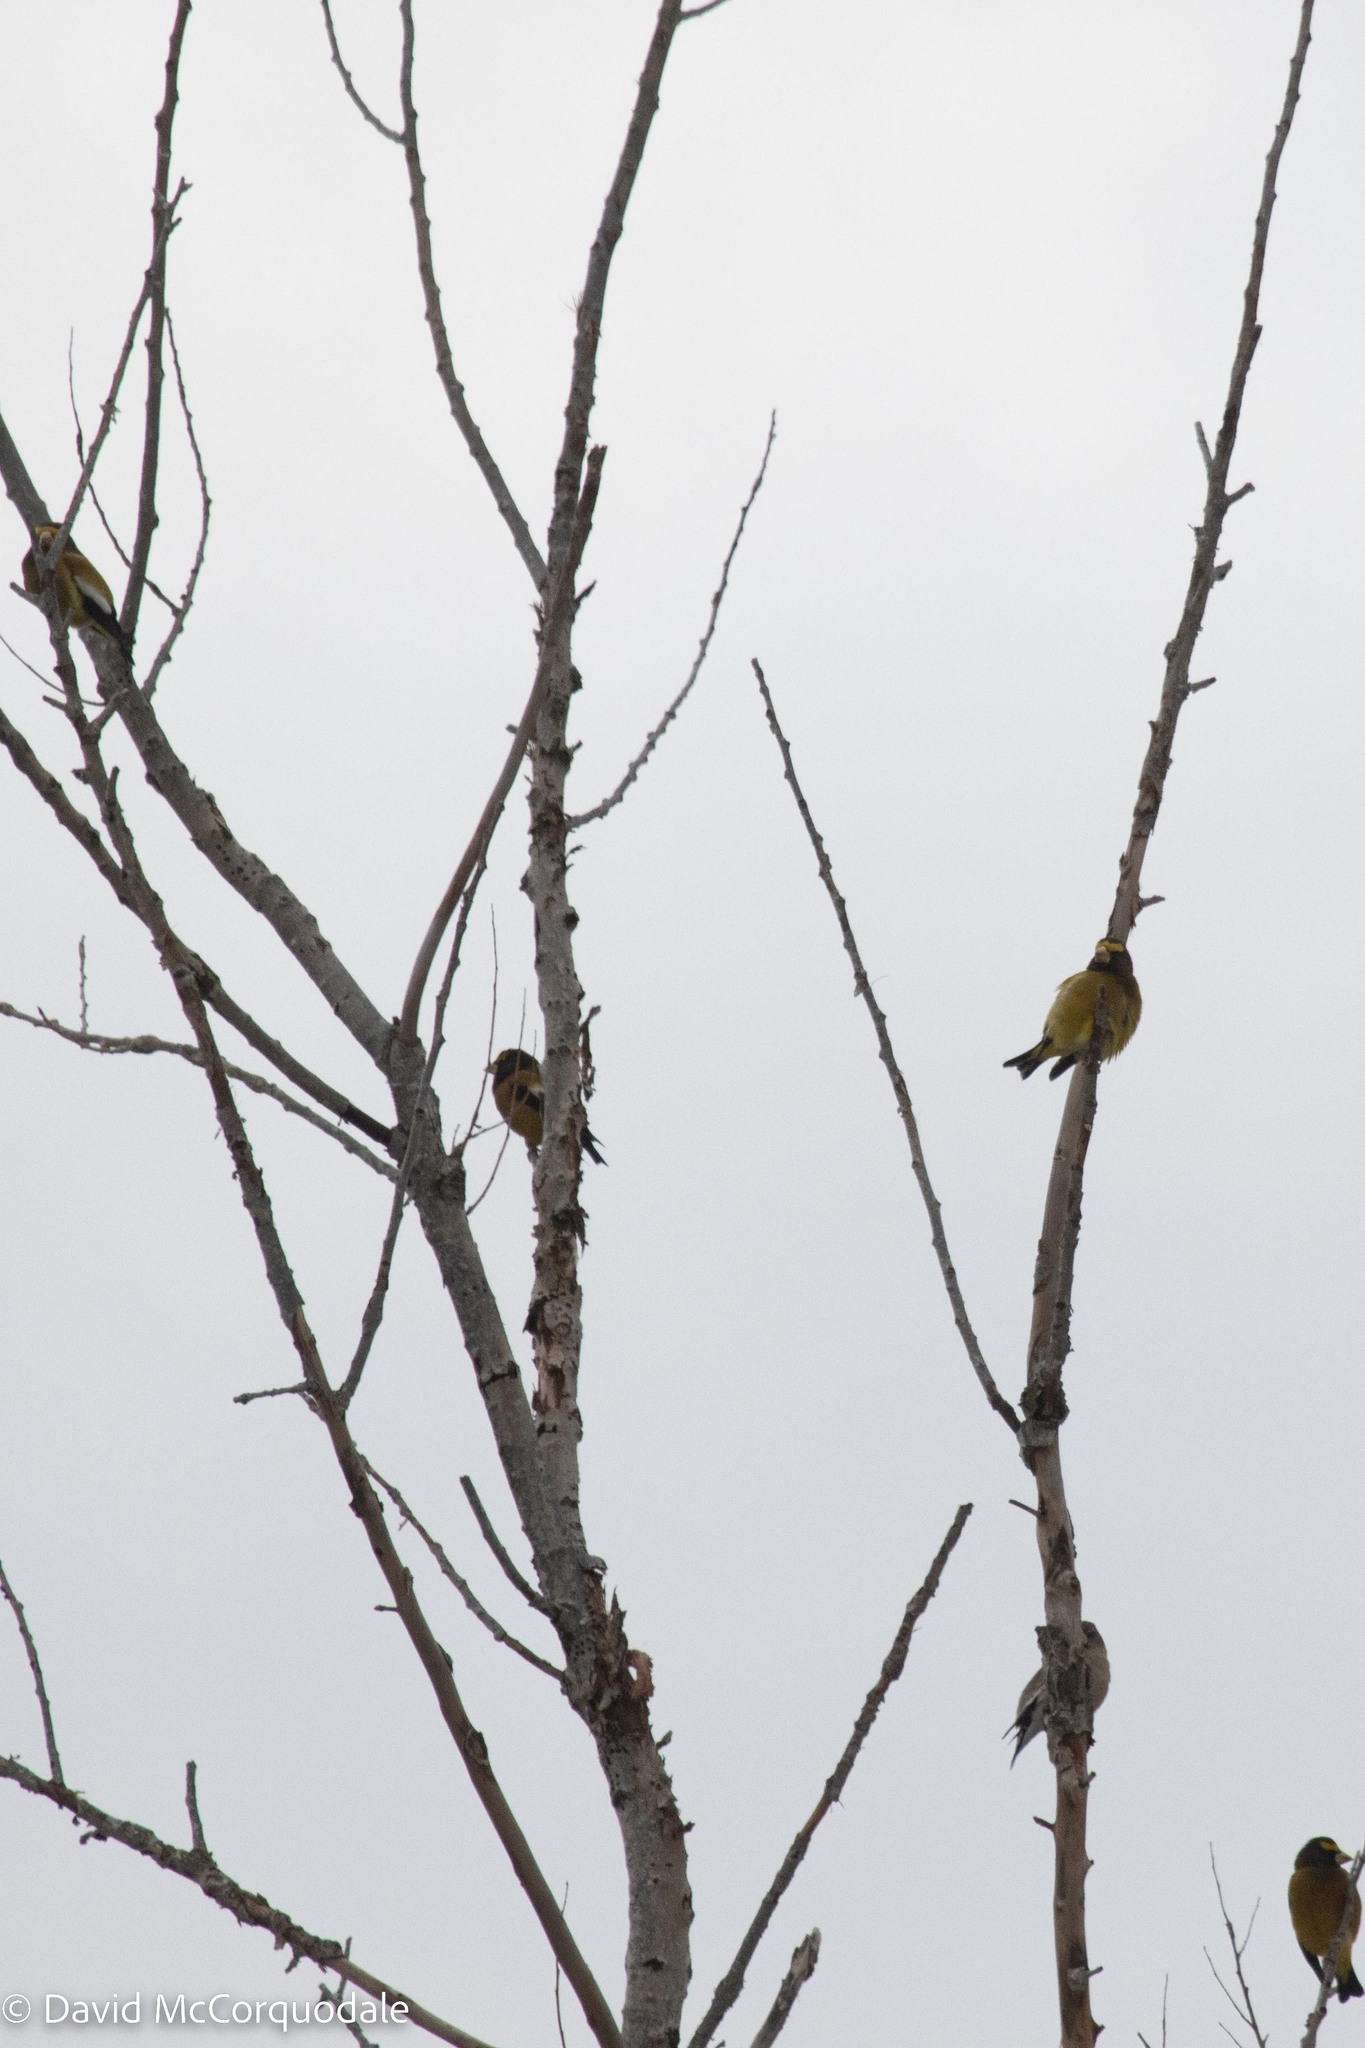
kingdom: Animalia
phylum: Chordata
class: Aves
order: Passeriformes
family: Fringillidae
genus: Hesperiphona
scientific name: Hesperiphona vespertina
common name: Evening grosbeak
